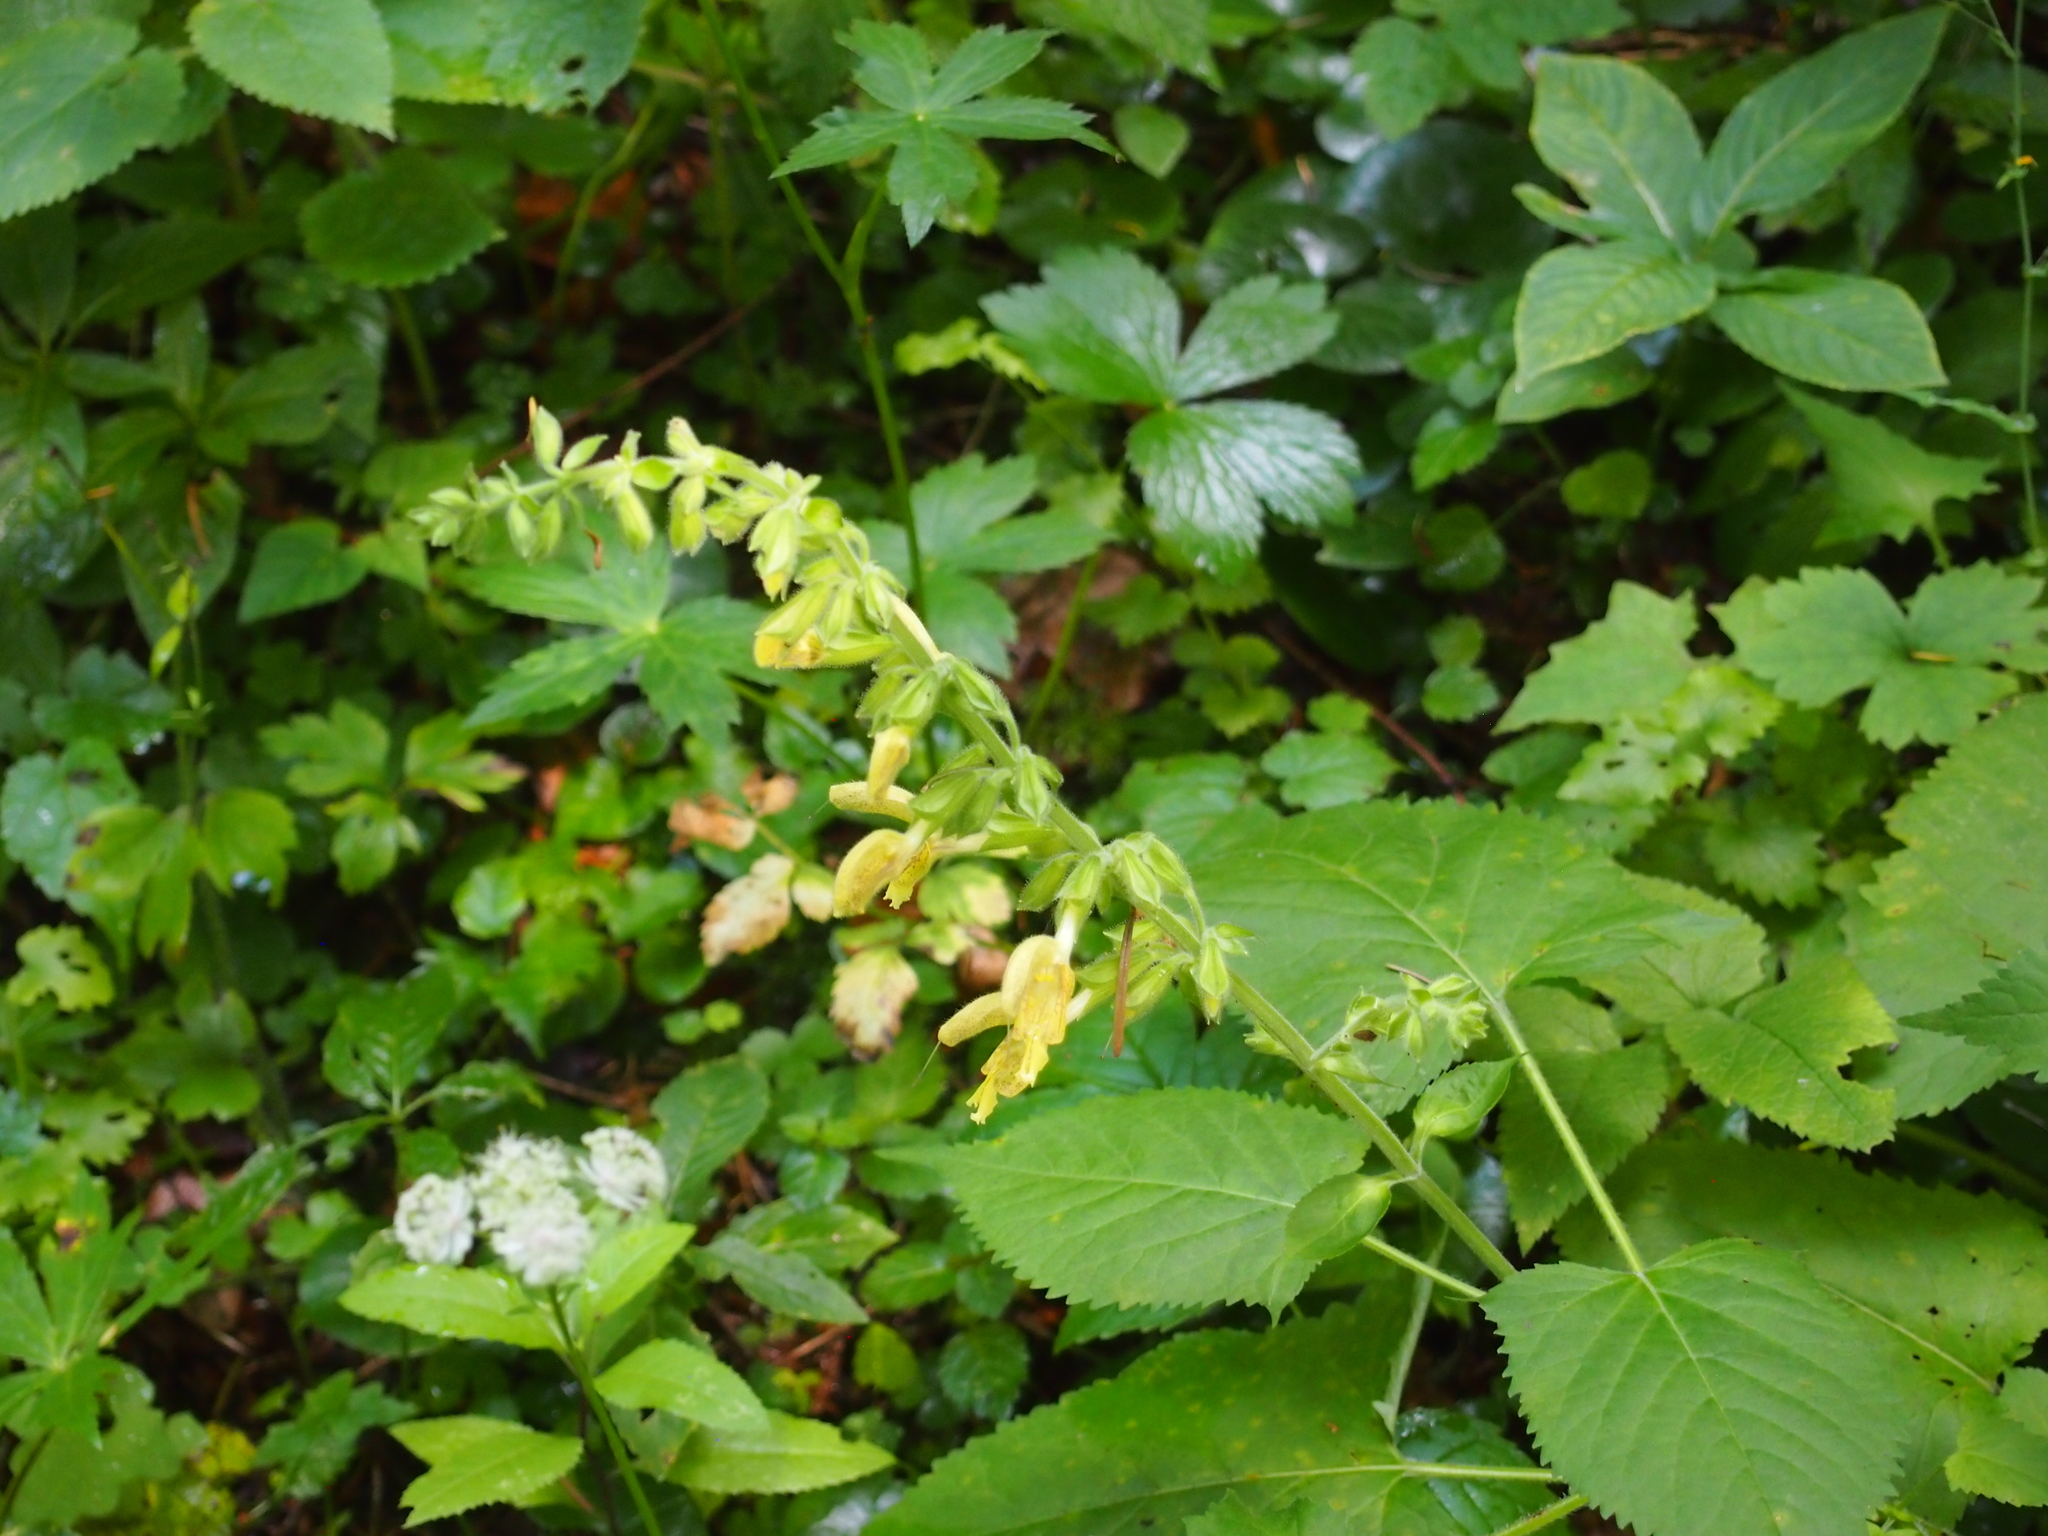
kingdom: Plantae
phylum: Tracheophyta
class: Magnoliopsida
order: Lamiales
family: Lamiaceae
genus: Salvia
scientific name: Salvia glutinosa
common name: Sticky clary
